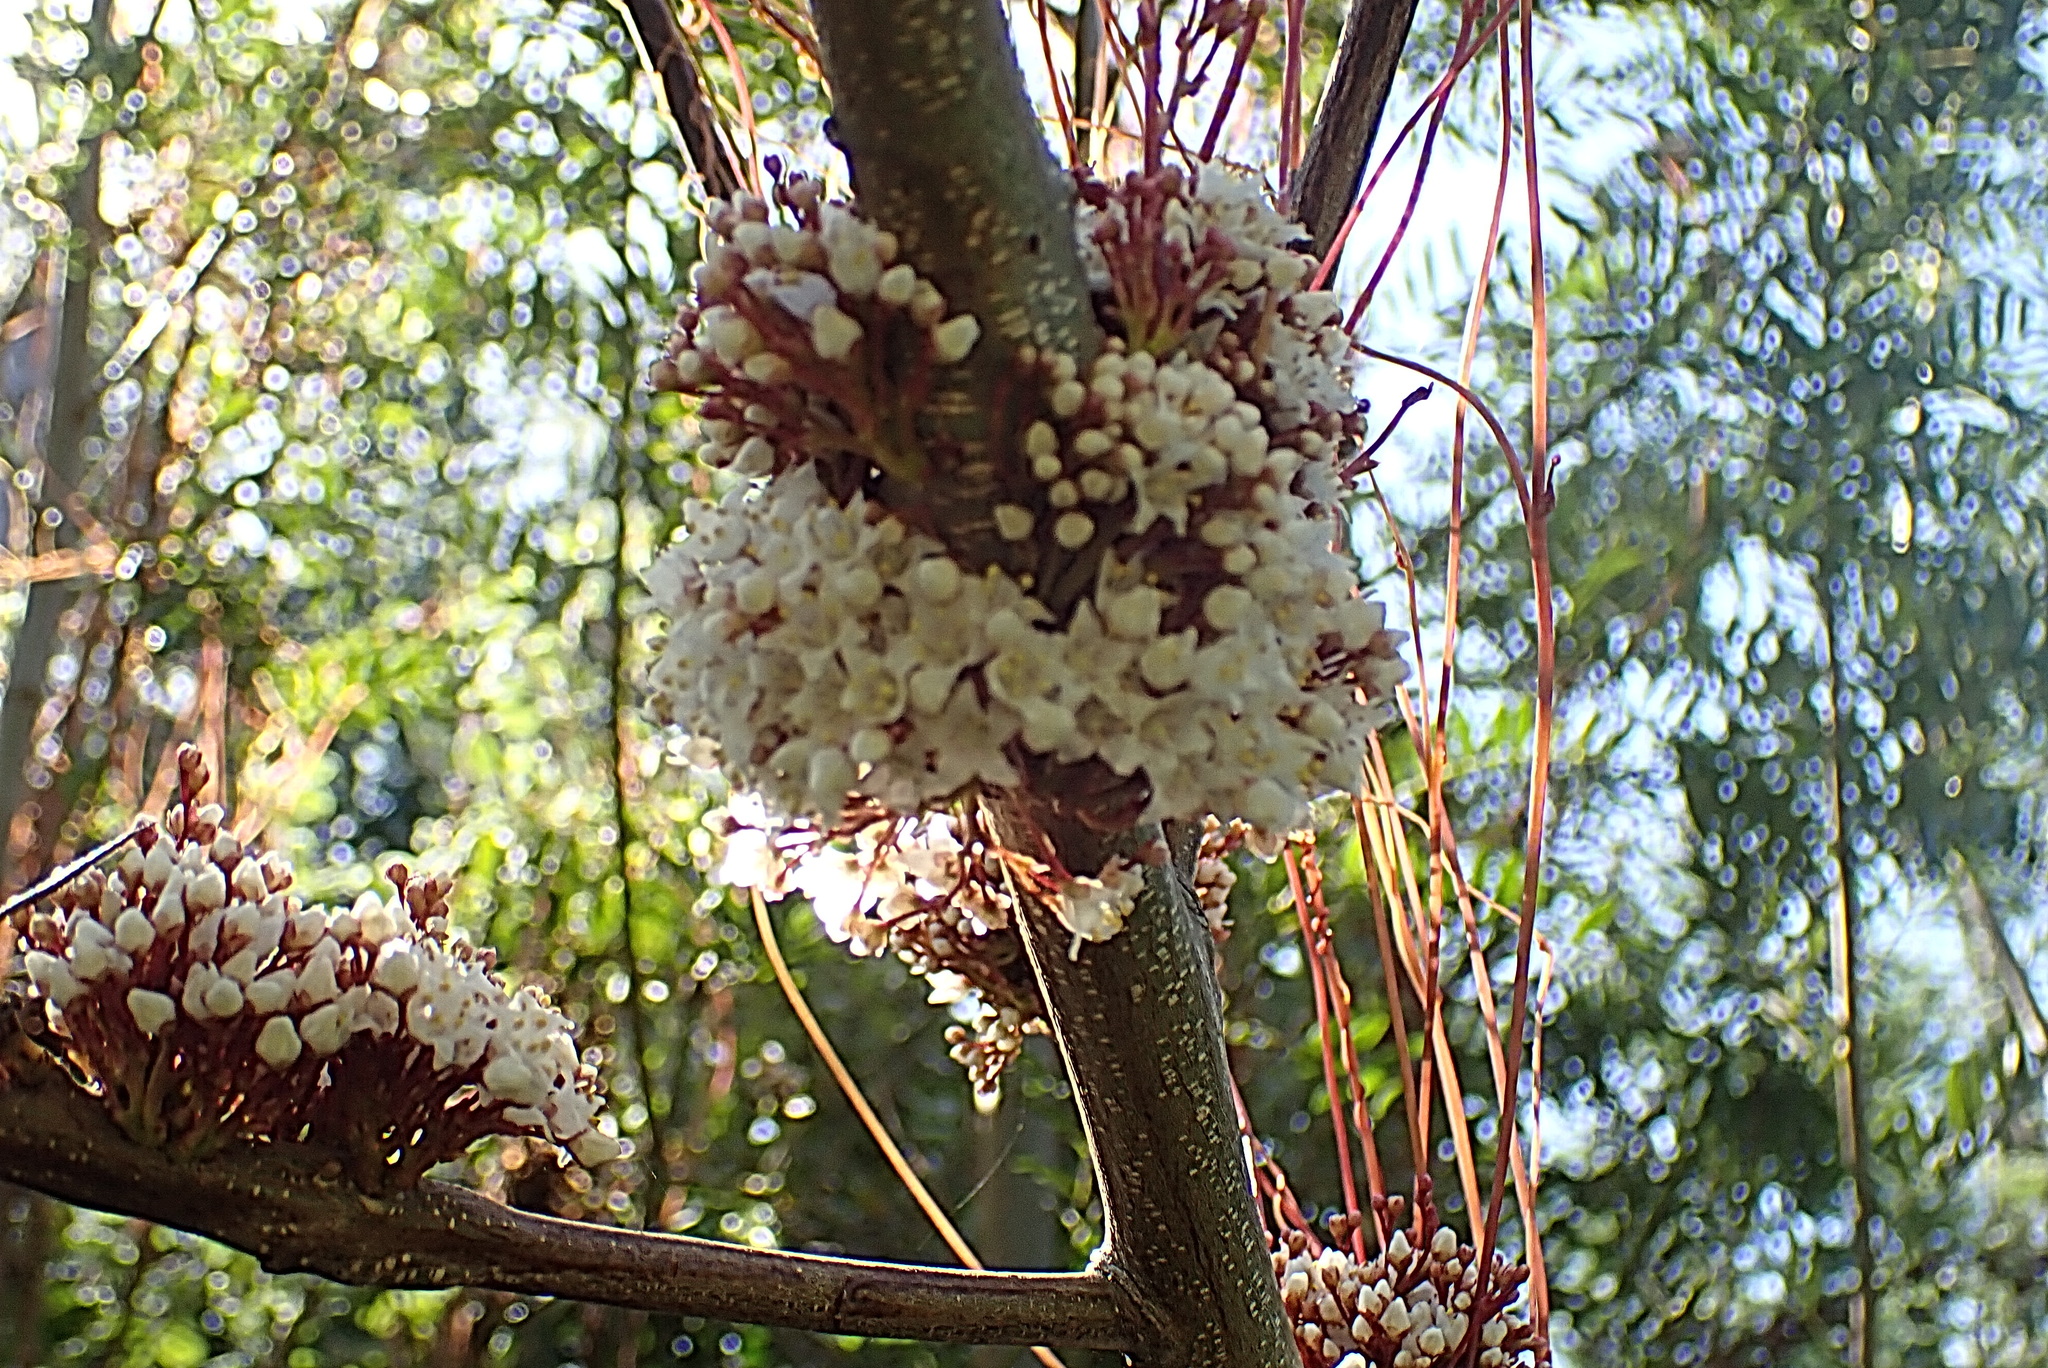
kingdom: Plantae
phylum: Tracheophyta
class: Magnoliopsida
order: Solanales
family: Convolvulaceae
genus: Cuscuta
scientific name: Cuscuta africana
